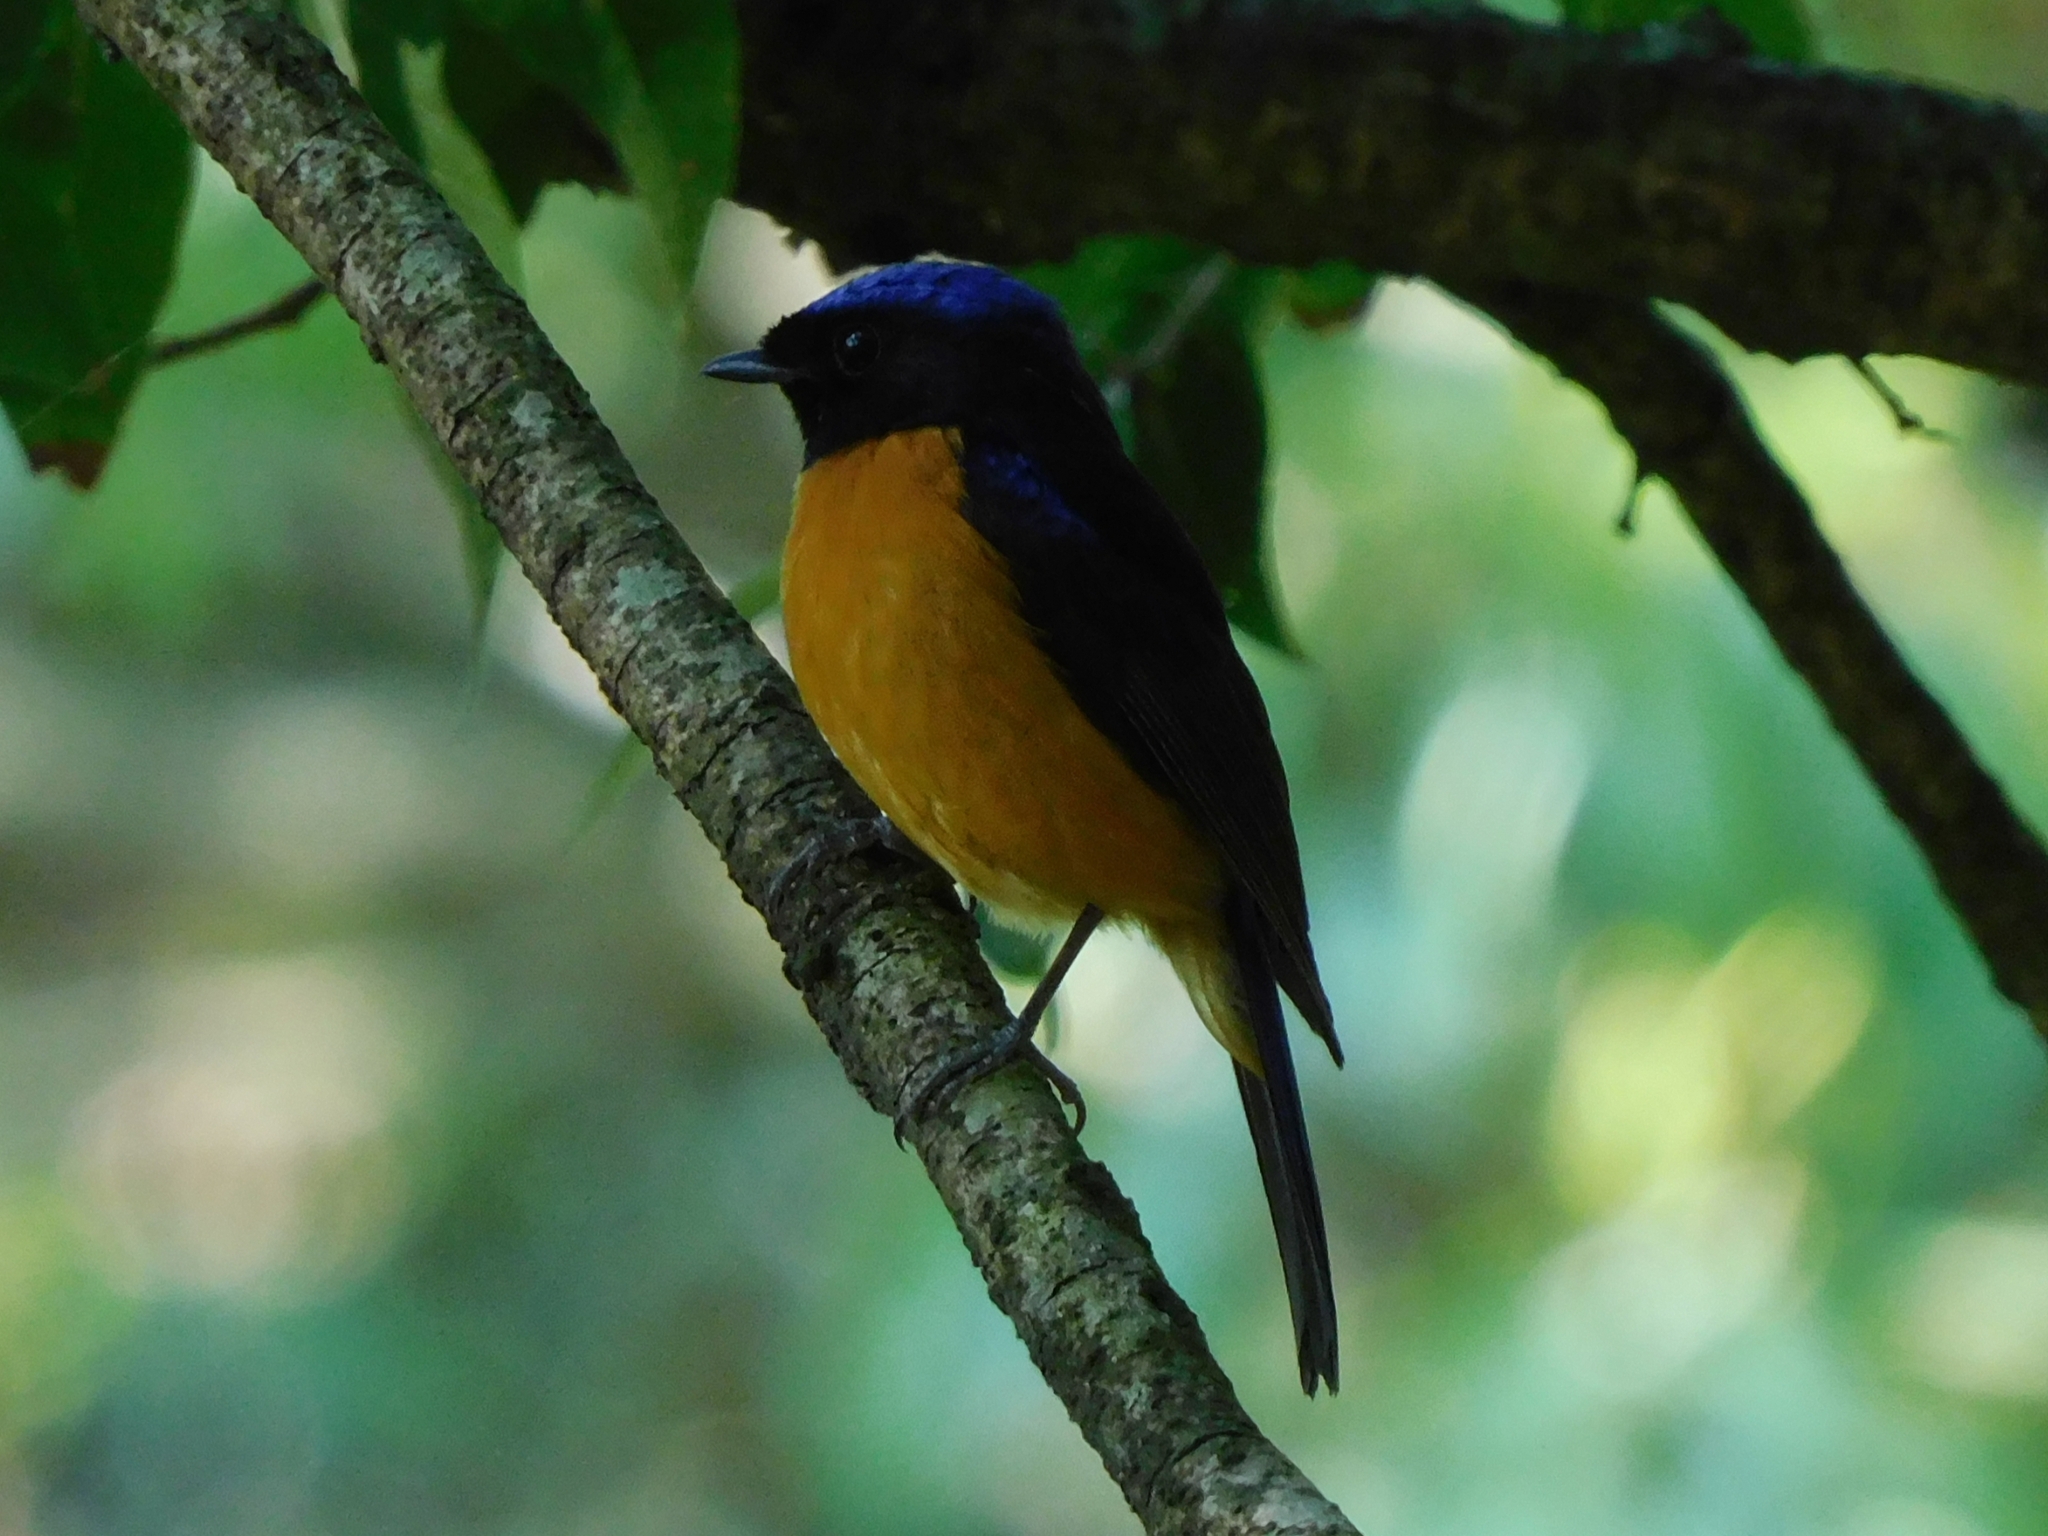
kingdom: Animalia
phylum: Chordata
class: Aves
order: Passeriformes
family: Muscicapidae
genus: Niltava
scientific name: Niltava sundara
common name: Rufous-bellied niltava
